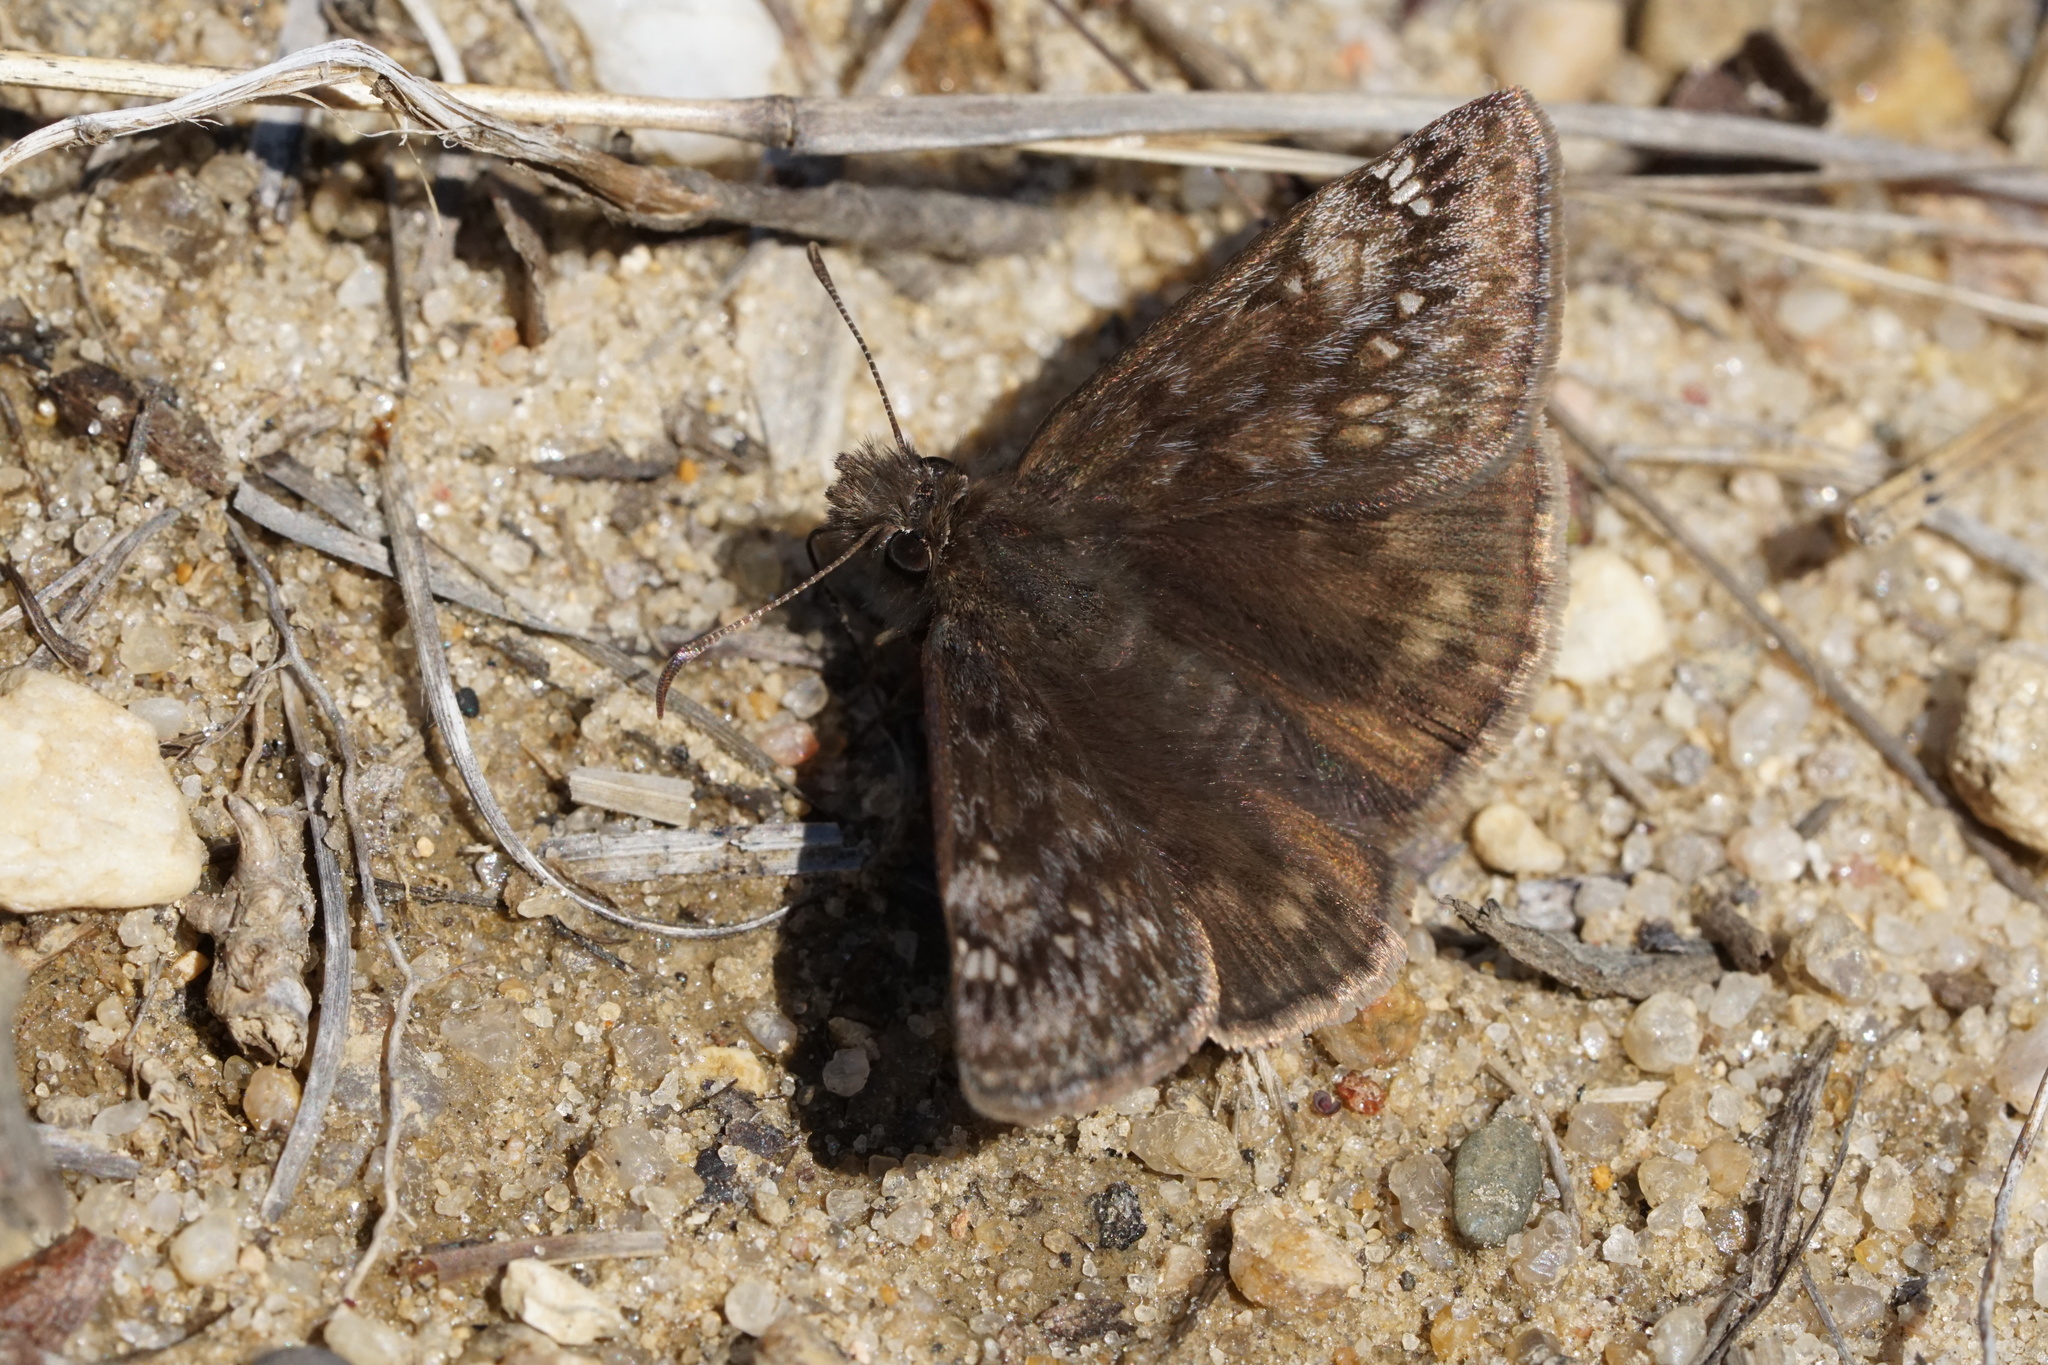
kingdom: Animalia
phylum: Arthropoda
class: Insecta
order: Lepidoptera
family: Hesperiidae
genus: Erynnis
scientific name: Erynnis juvenalis
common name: Juvenal's duskywing
